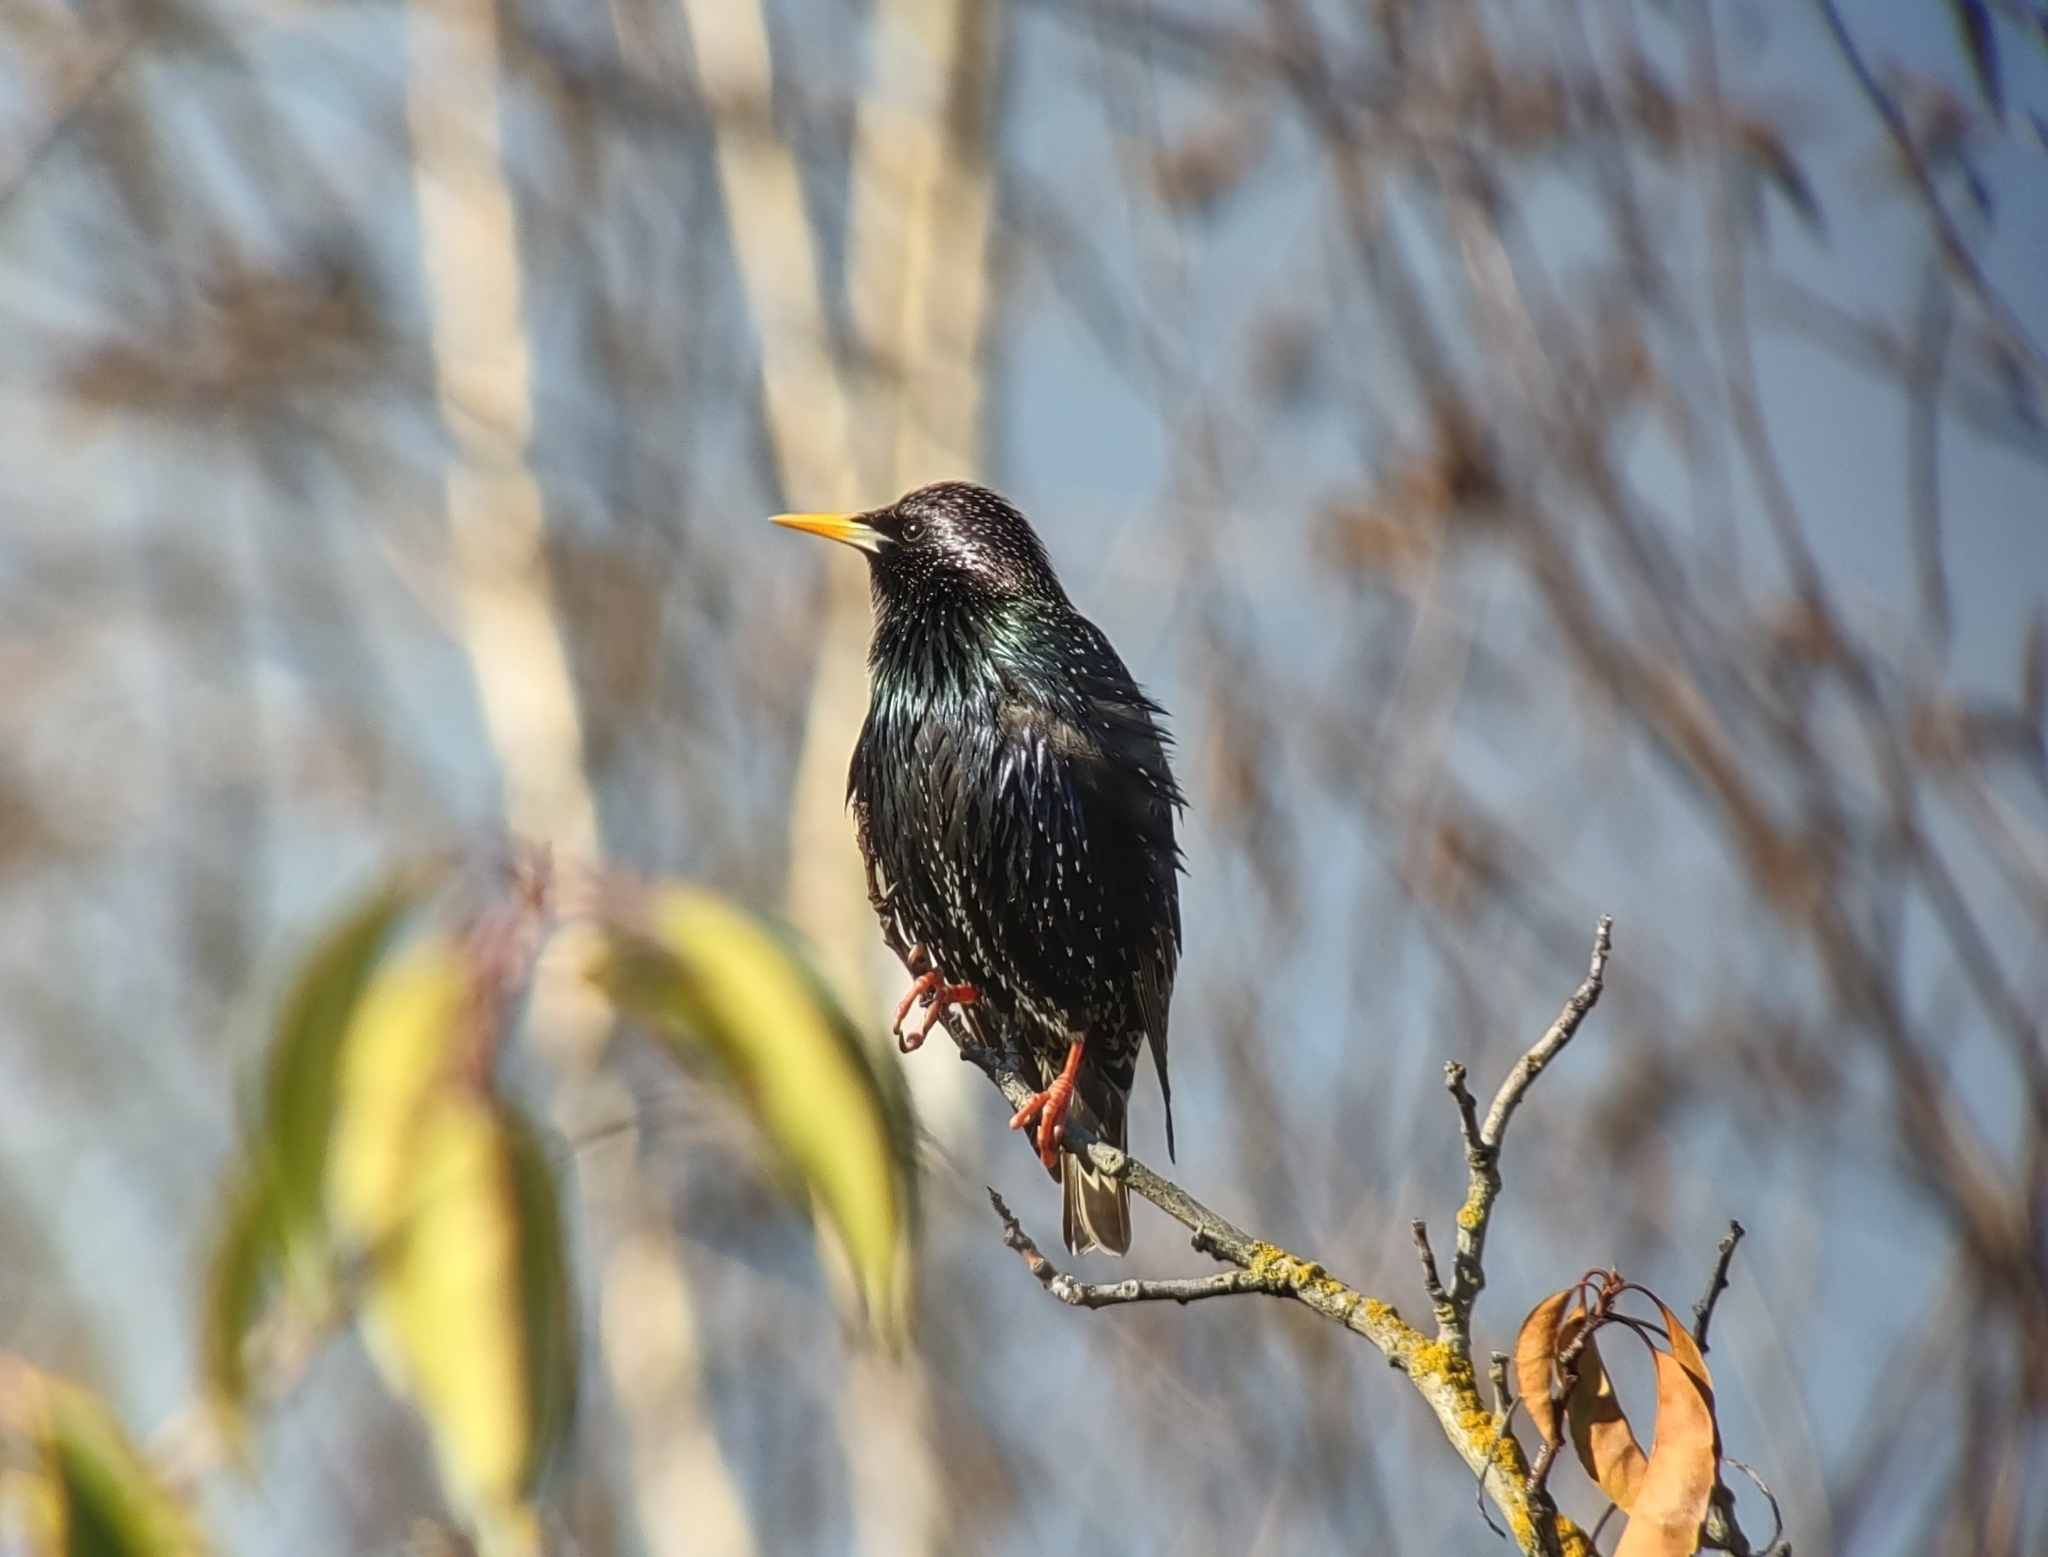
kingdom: Animalia
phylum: Chordata
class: Aves
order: Passeriformes
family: Sturnidae
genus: Sturnus
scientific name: Sturnus vulgaris
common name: Common starling
